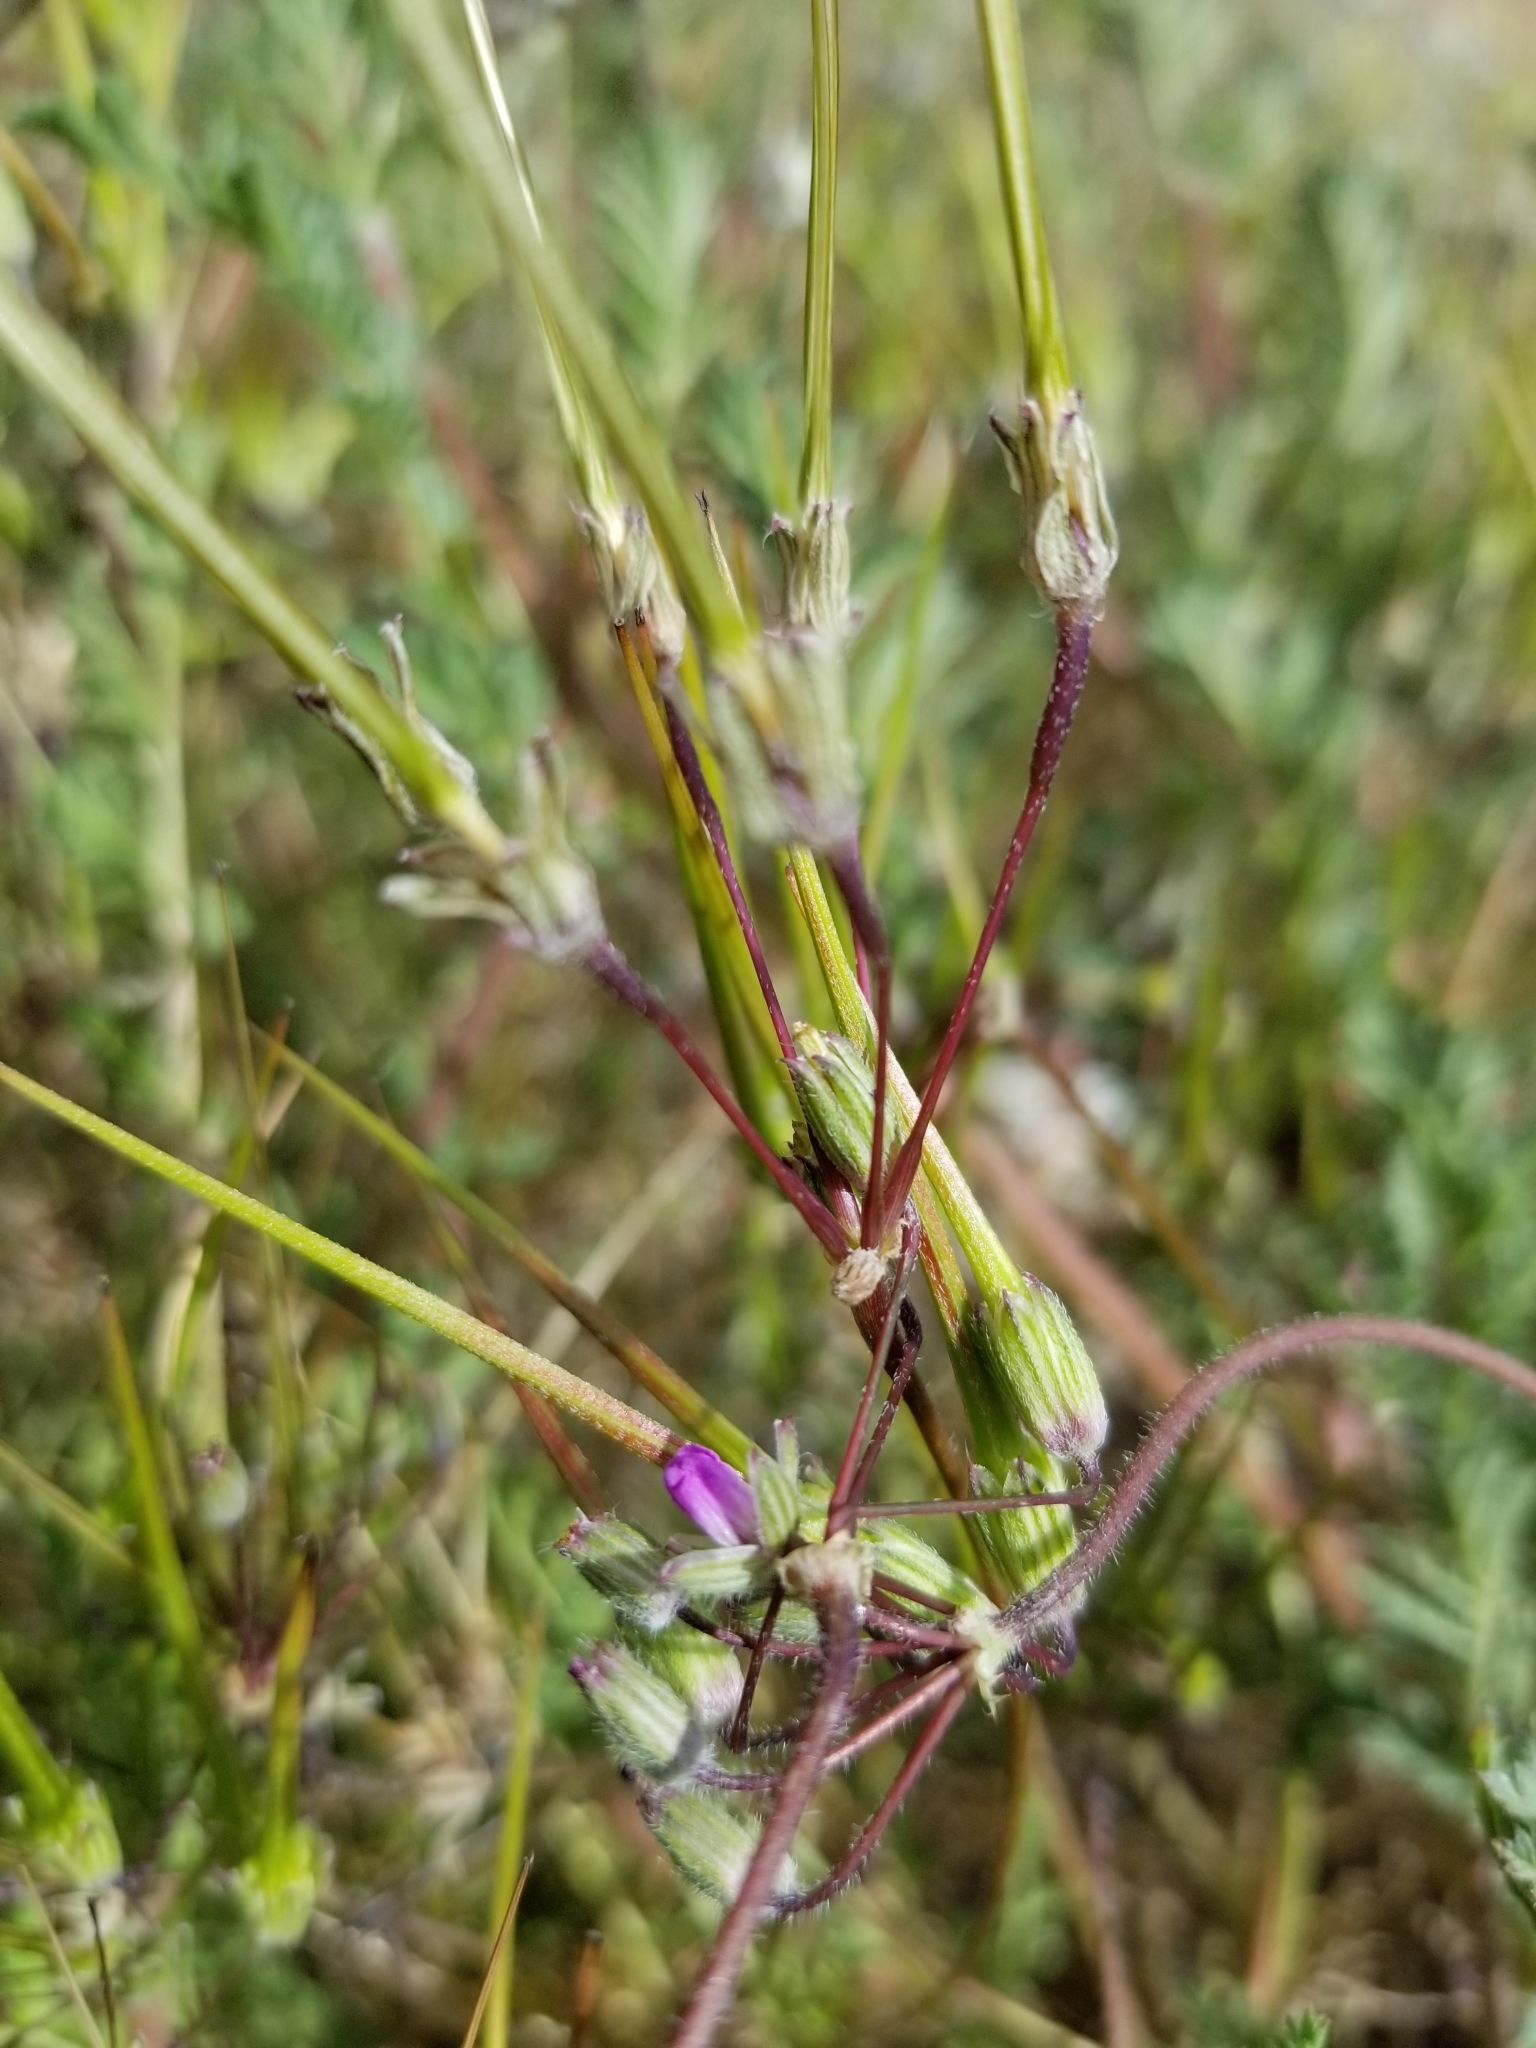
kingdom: Plantae
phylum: Tracheophyta
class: Magnoliopsida
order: Geraniales
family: Geraniaceae
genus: Erodium
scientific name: Erodium cicutarium
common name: Common stork's-bill
